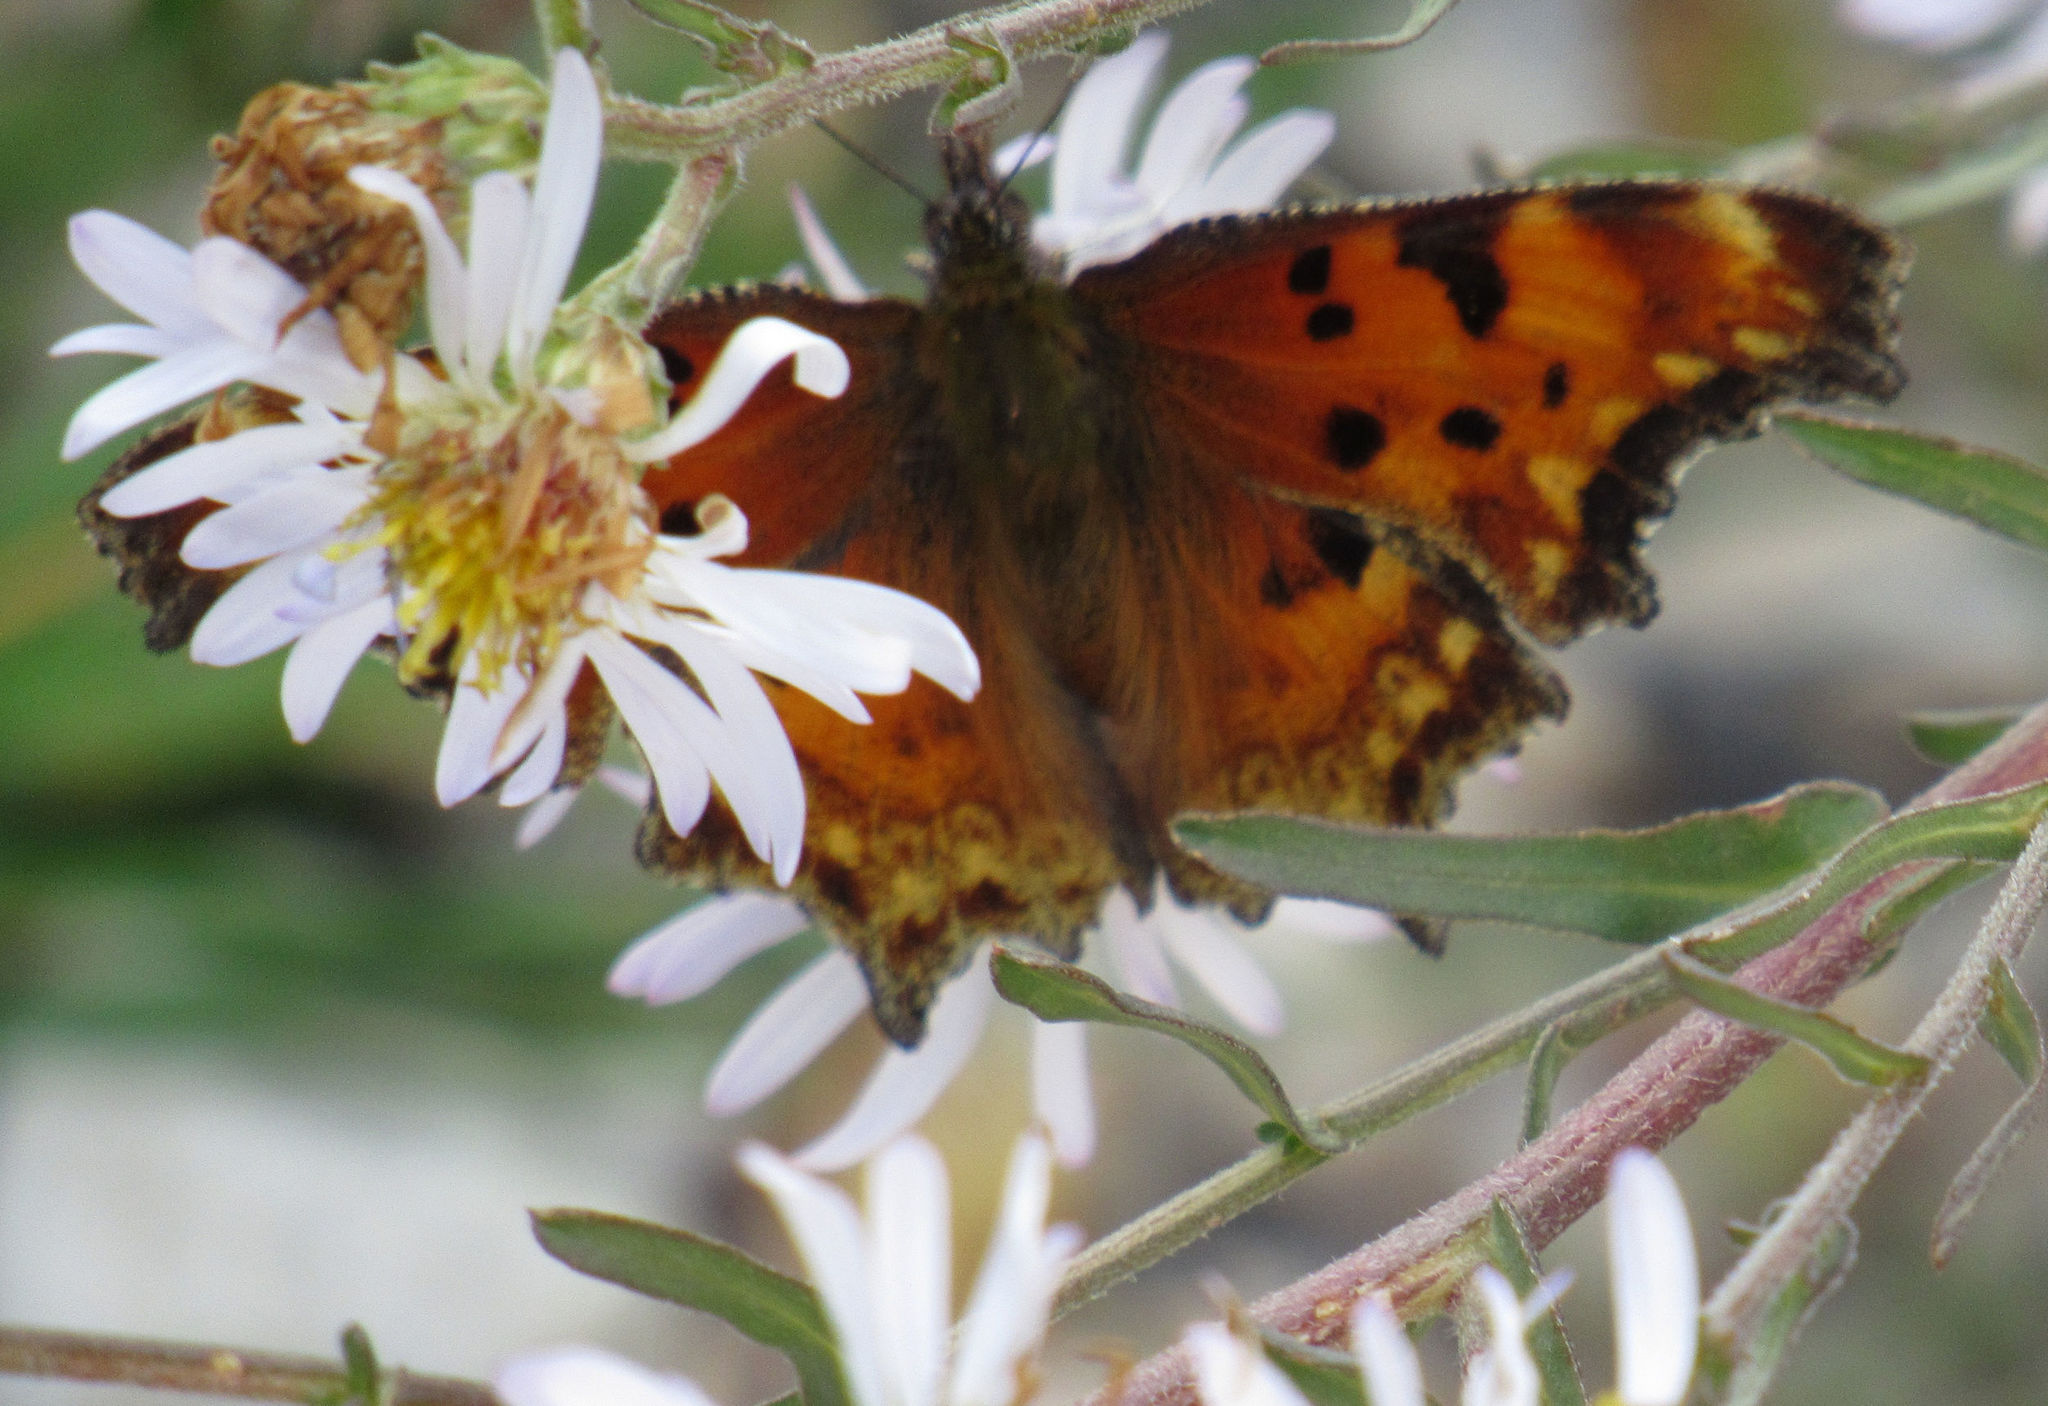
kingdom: Animalia
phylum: Arthropoda
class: Insecta
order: Lepidoptera
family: Nymphalidae
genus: Polygonia
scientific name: Polygonia gracilis
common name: Hoary comma
